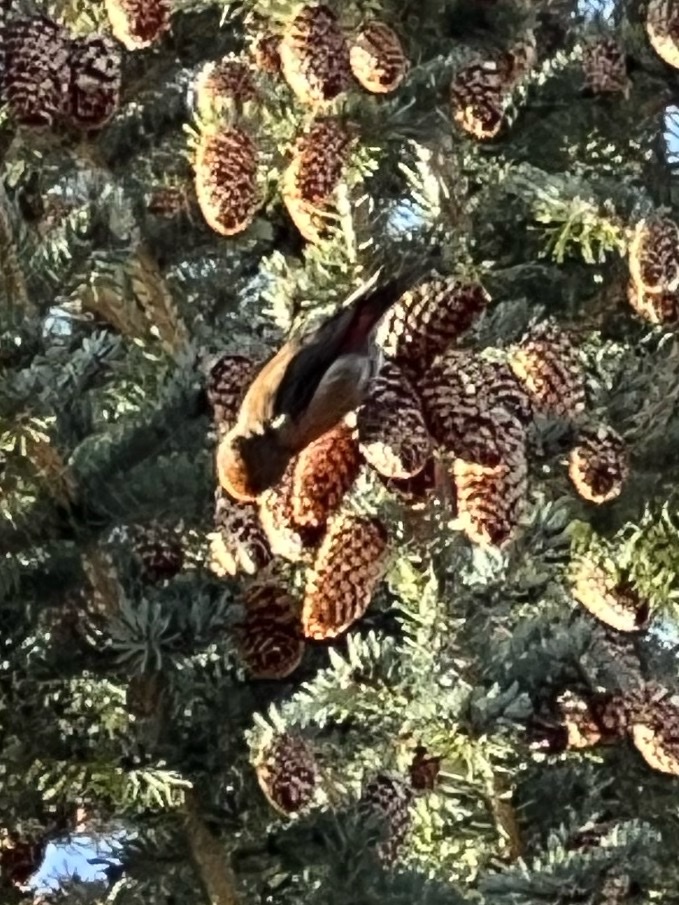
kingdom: Animalia
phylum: Chordata
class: Aves
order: Passeriformes
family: Fringillidae
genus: Loxia
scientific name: Loxia curvirostra
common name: Red crossbill
